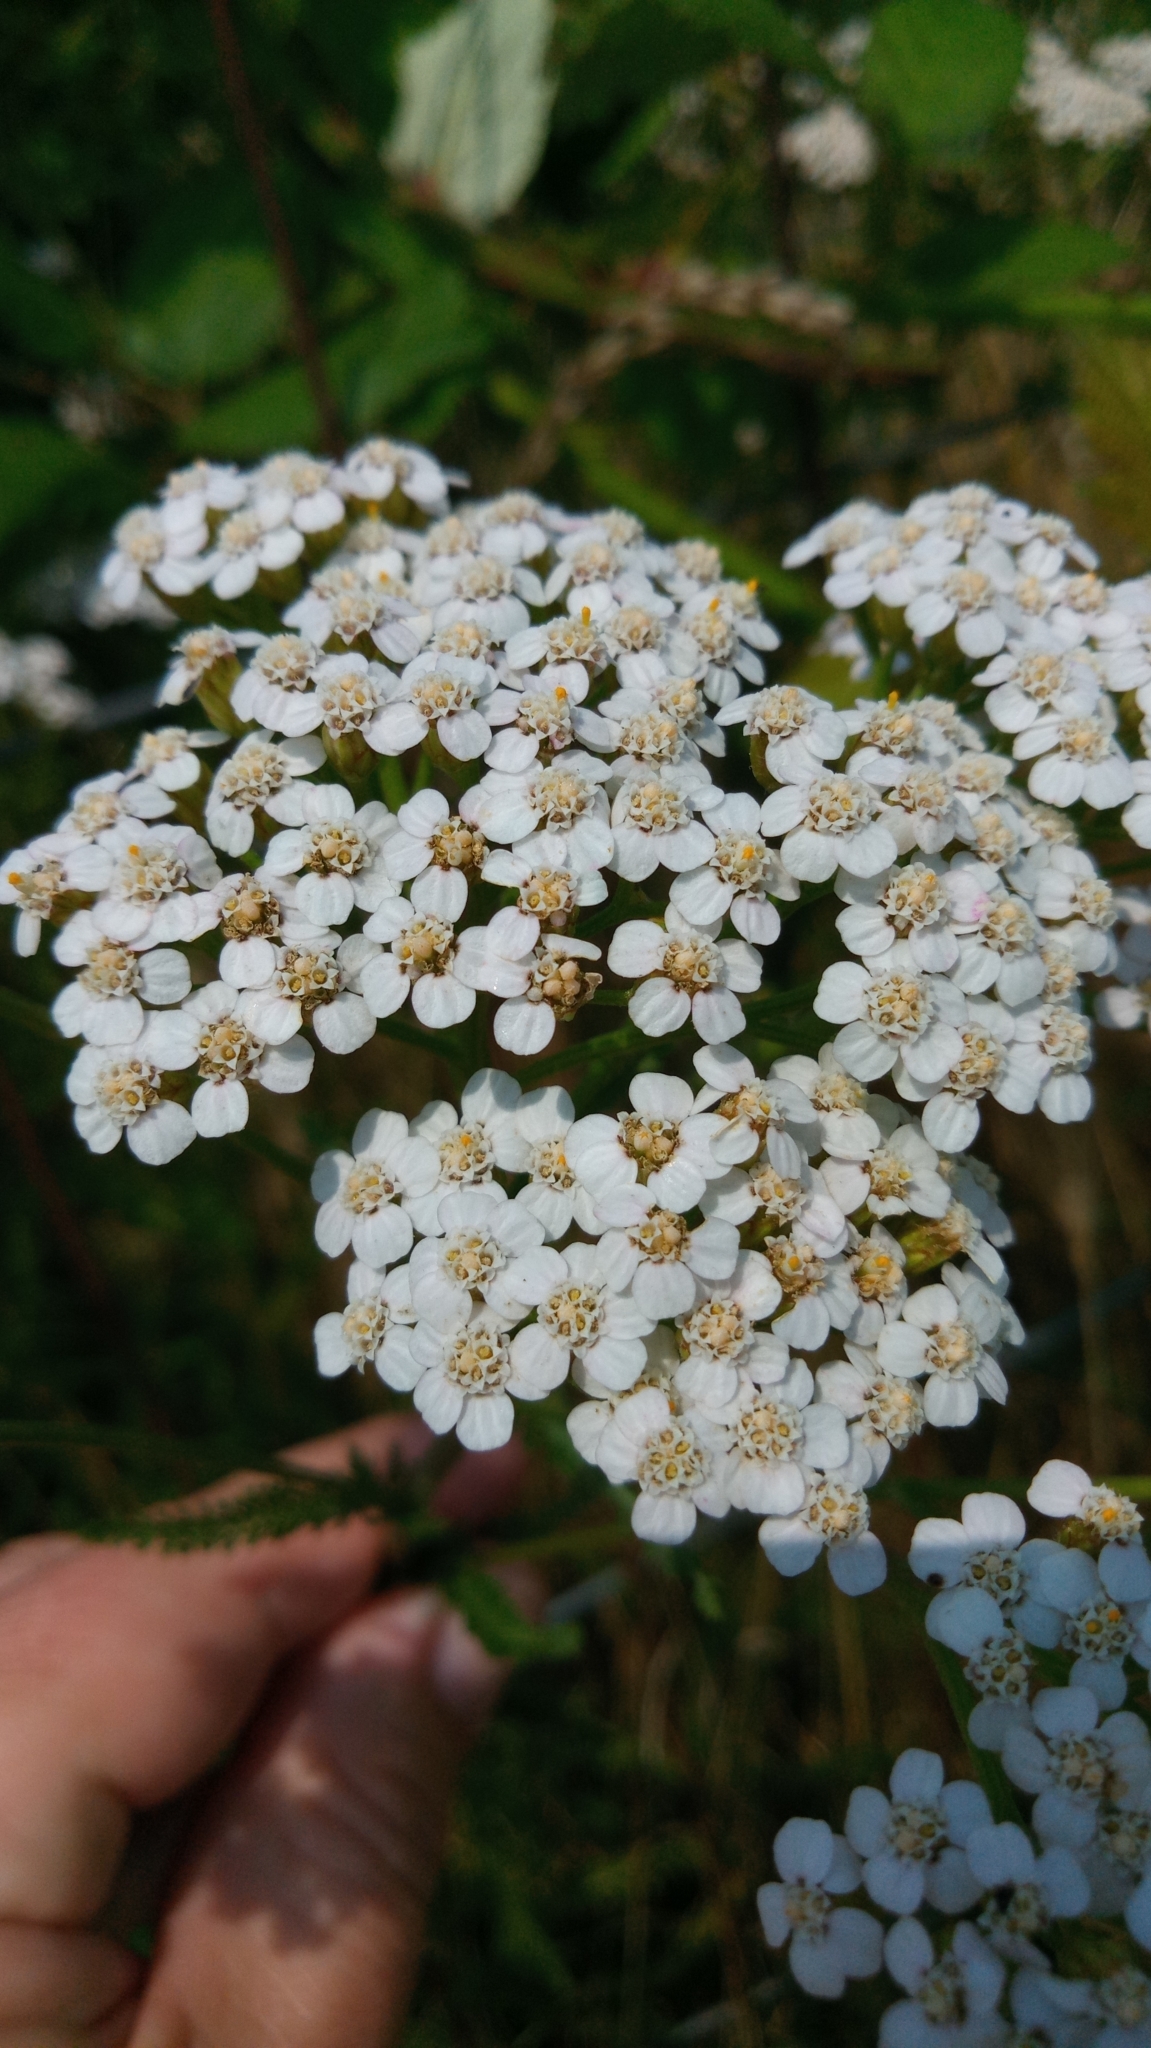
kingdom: Plantae
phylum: Tracheophyta
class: Magnoliopsida
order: Asterales
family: Asteraceae
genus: Achillea
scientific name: Achillea millefolium
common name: Yarrow
